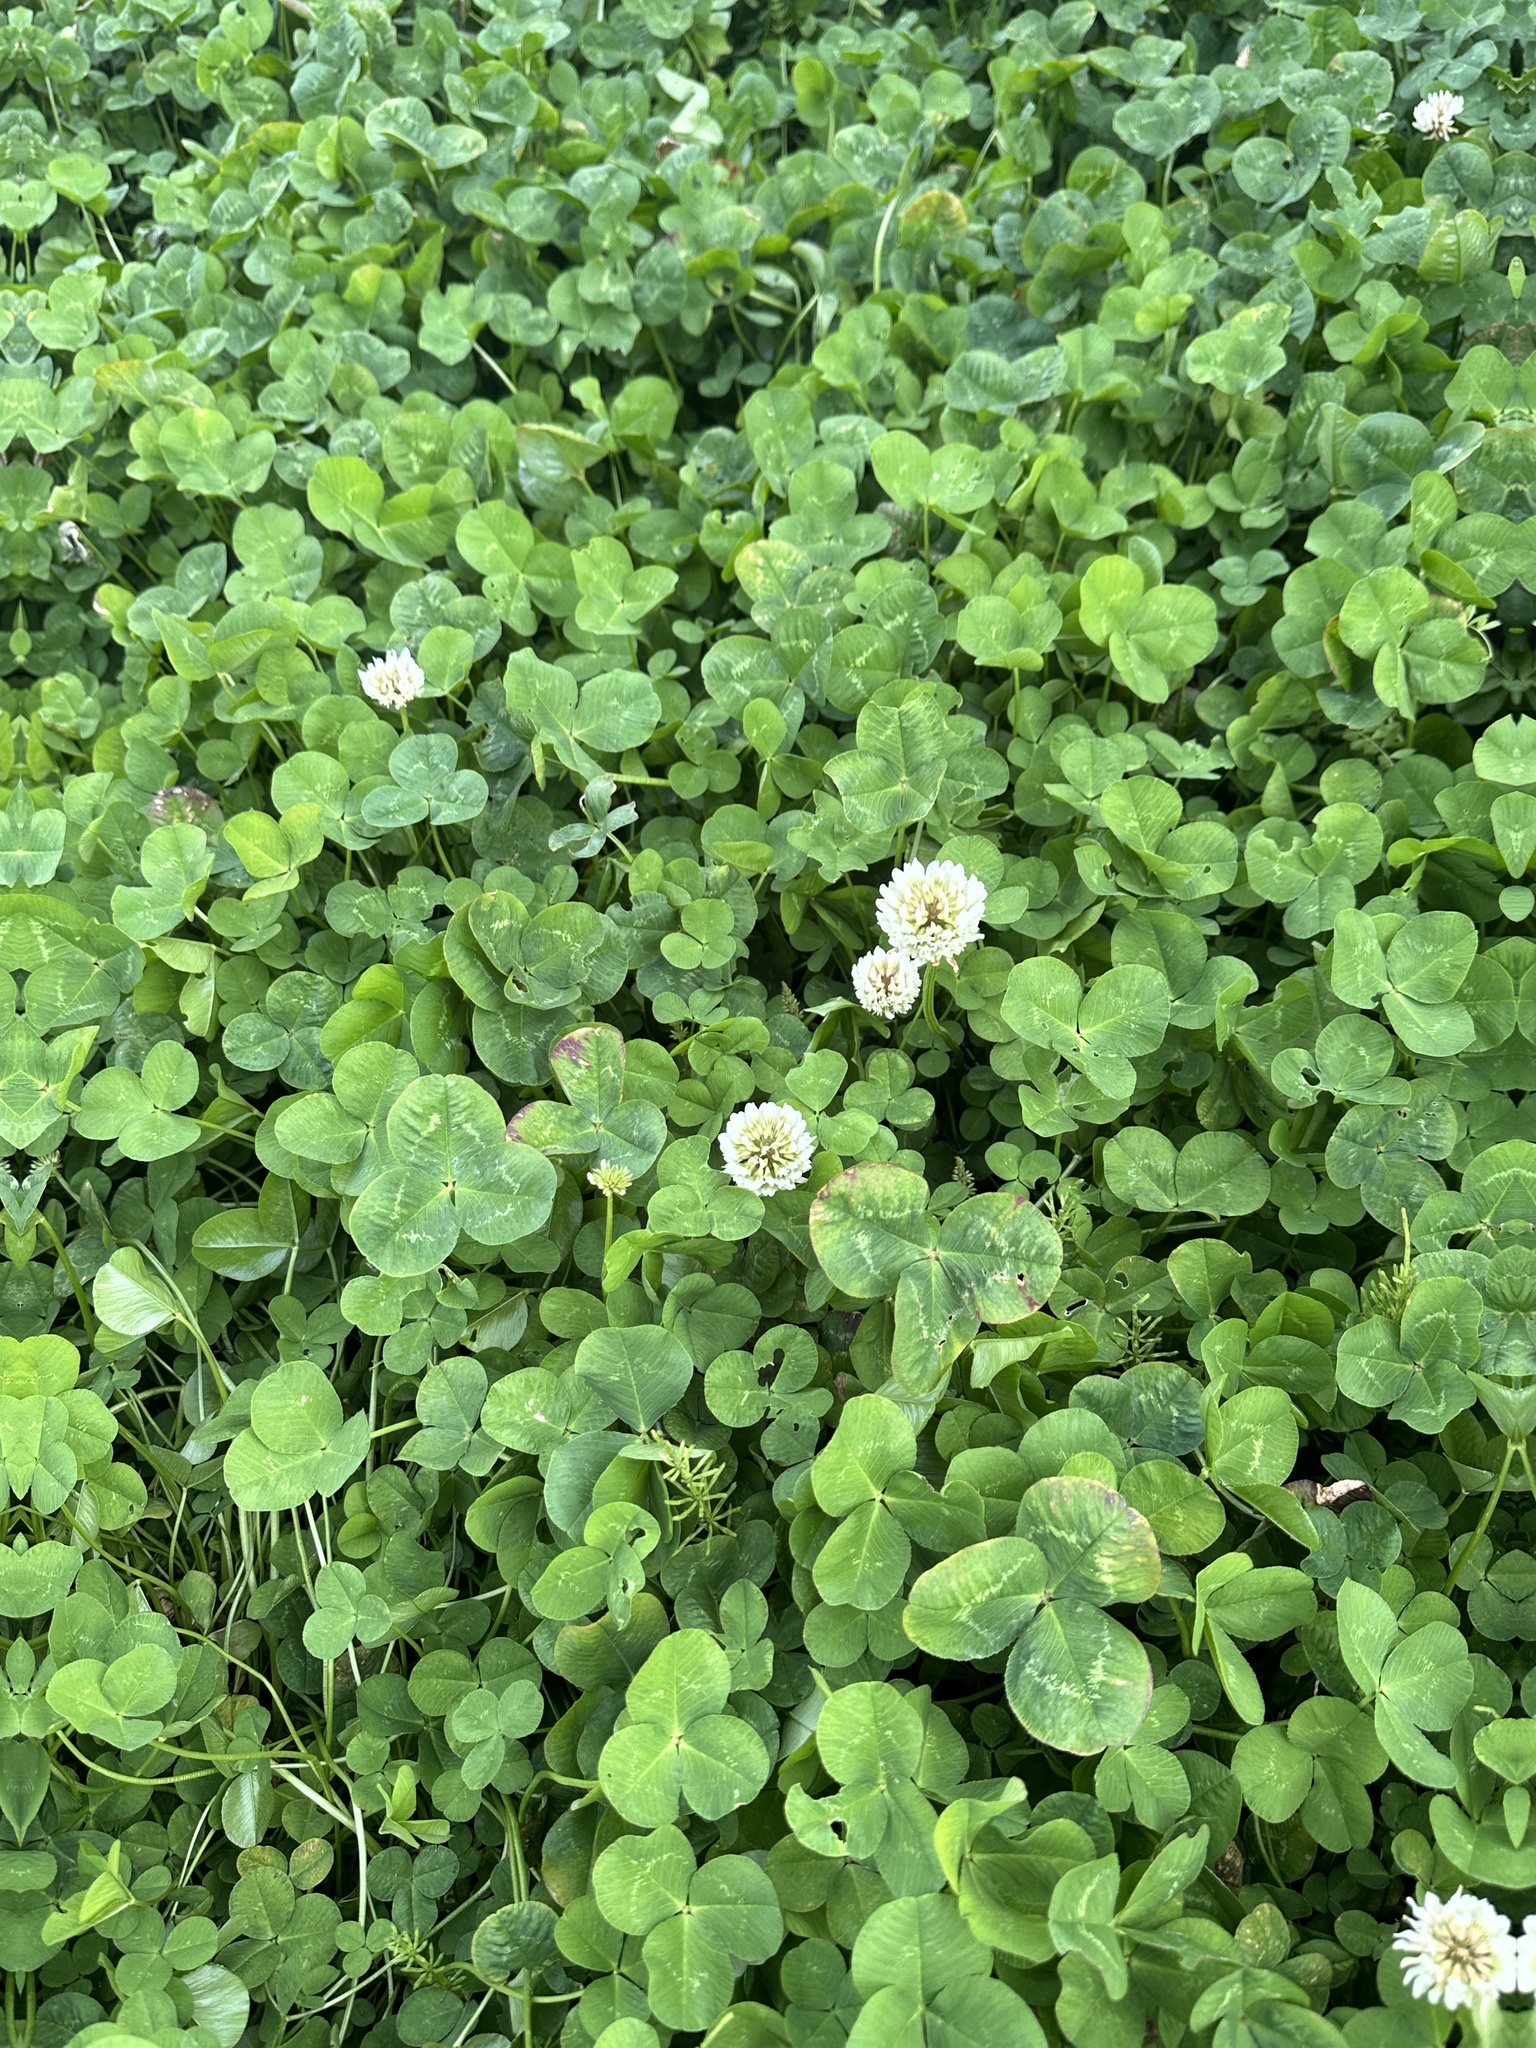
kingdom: Plantae
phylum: Tracheophyta
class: Magnoliopsida
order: Fabales
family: Fabaceae
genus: Trifolium
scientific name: Trifolium repens
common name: White clover
